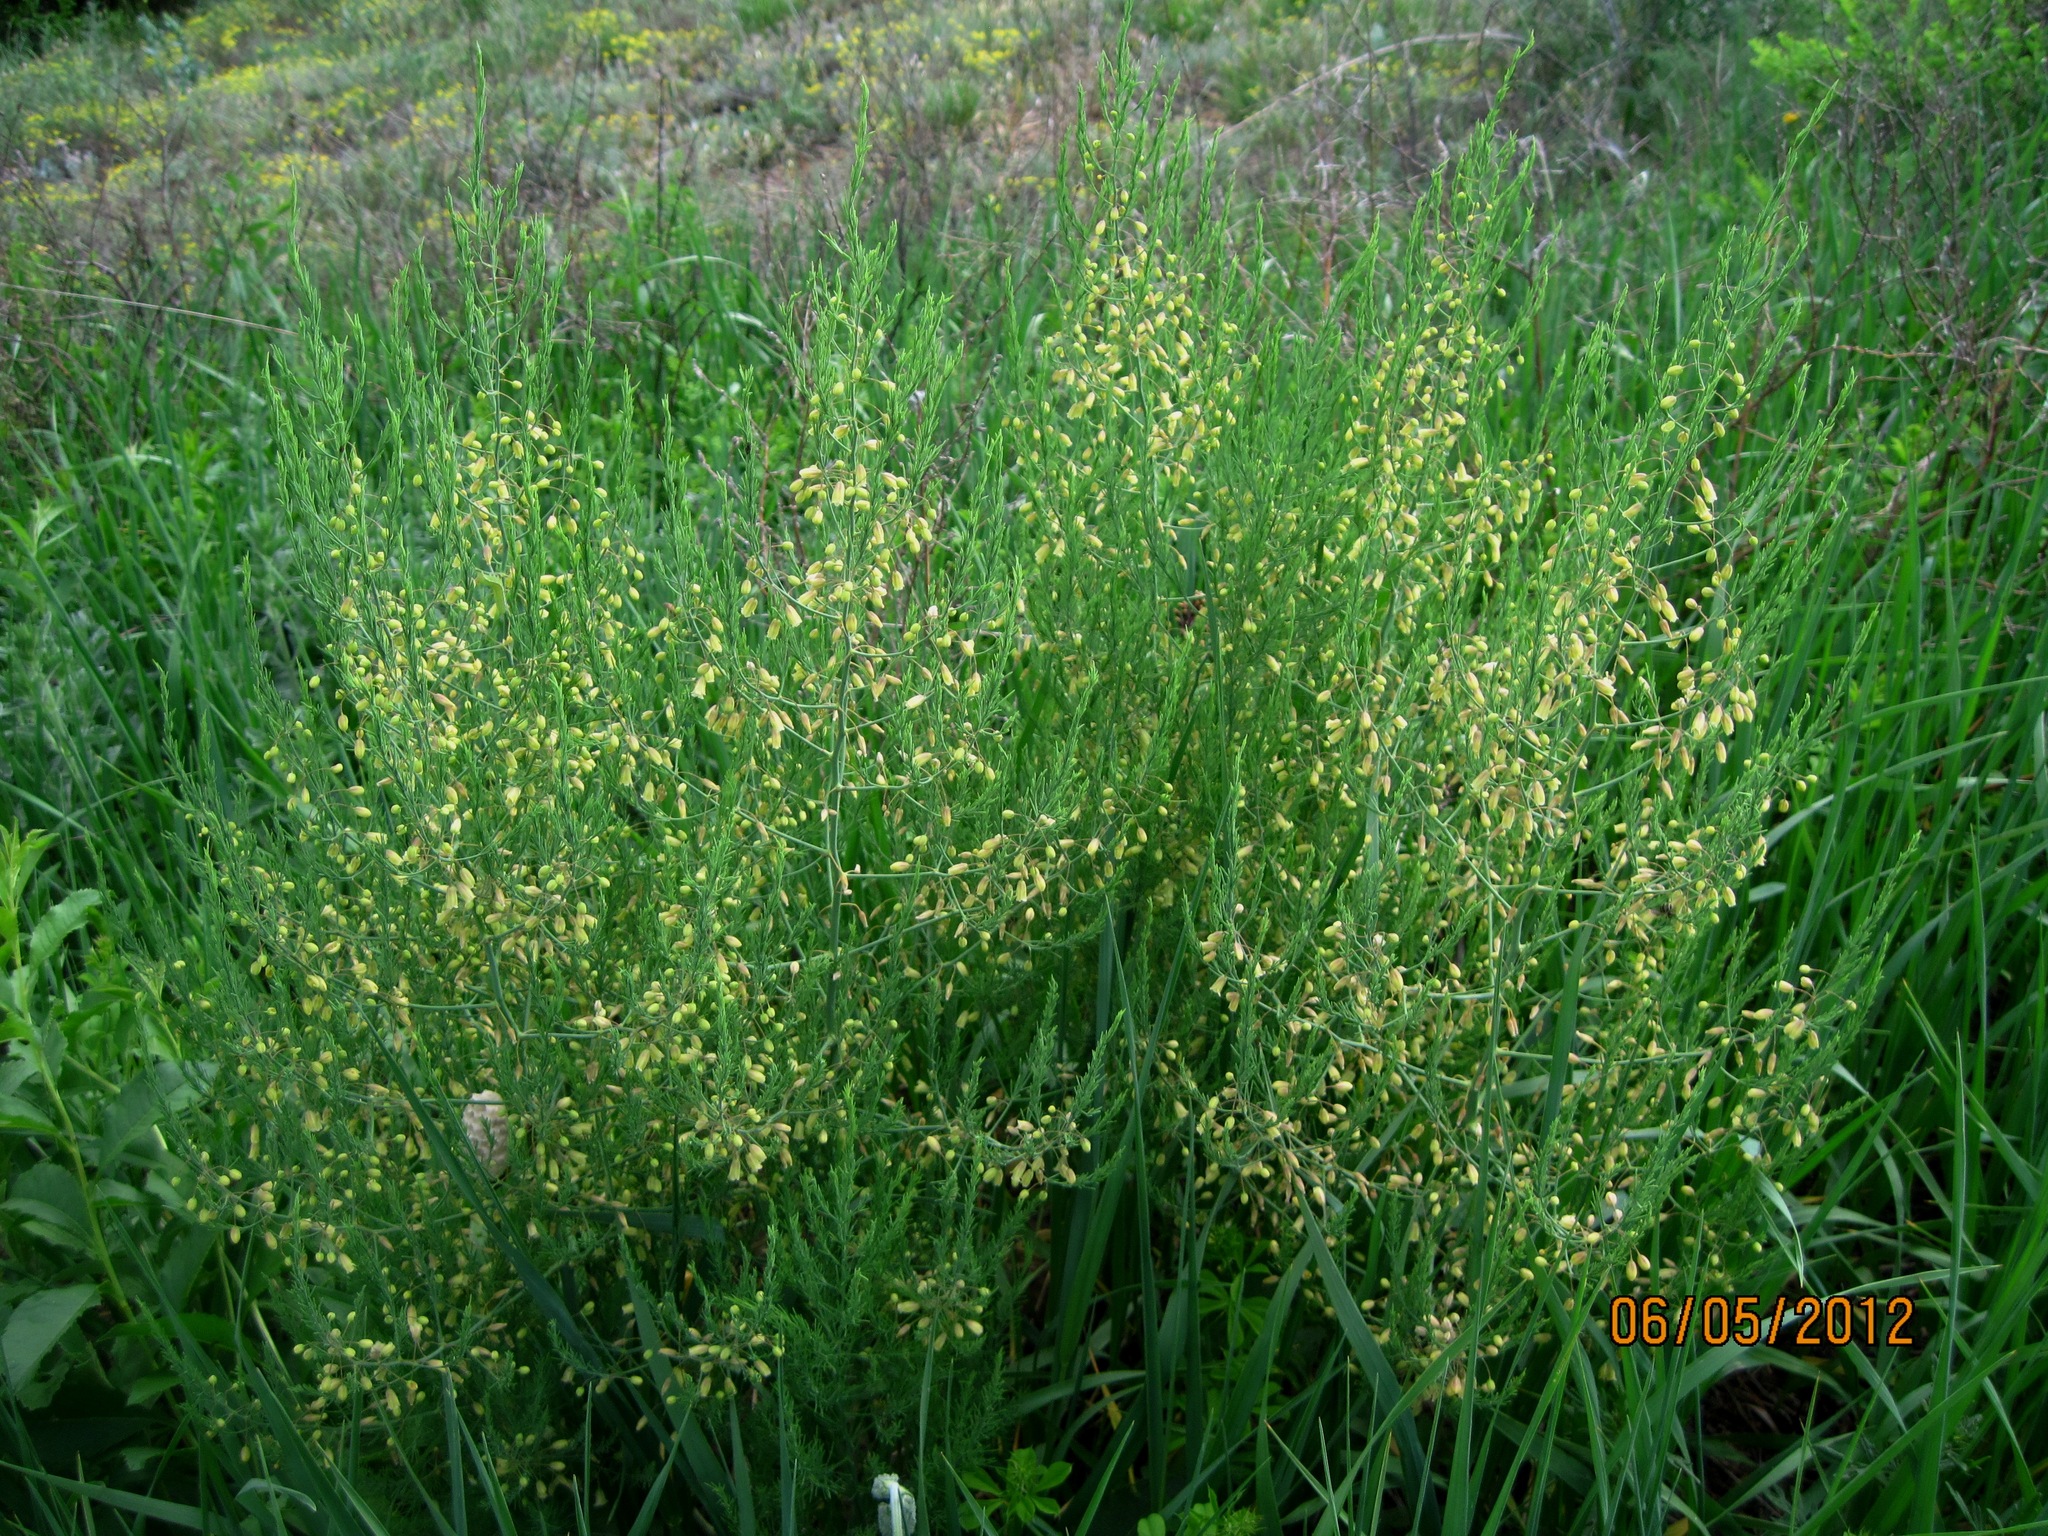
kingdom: Plantae
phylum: Tracheophyta
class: Liliopsida
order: Asparagales
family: Asparagaceae
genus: Asparagus
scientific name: Asparagus officinalis
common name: Garden asparagus
